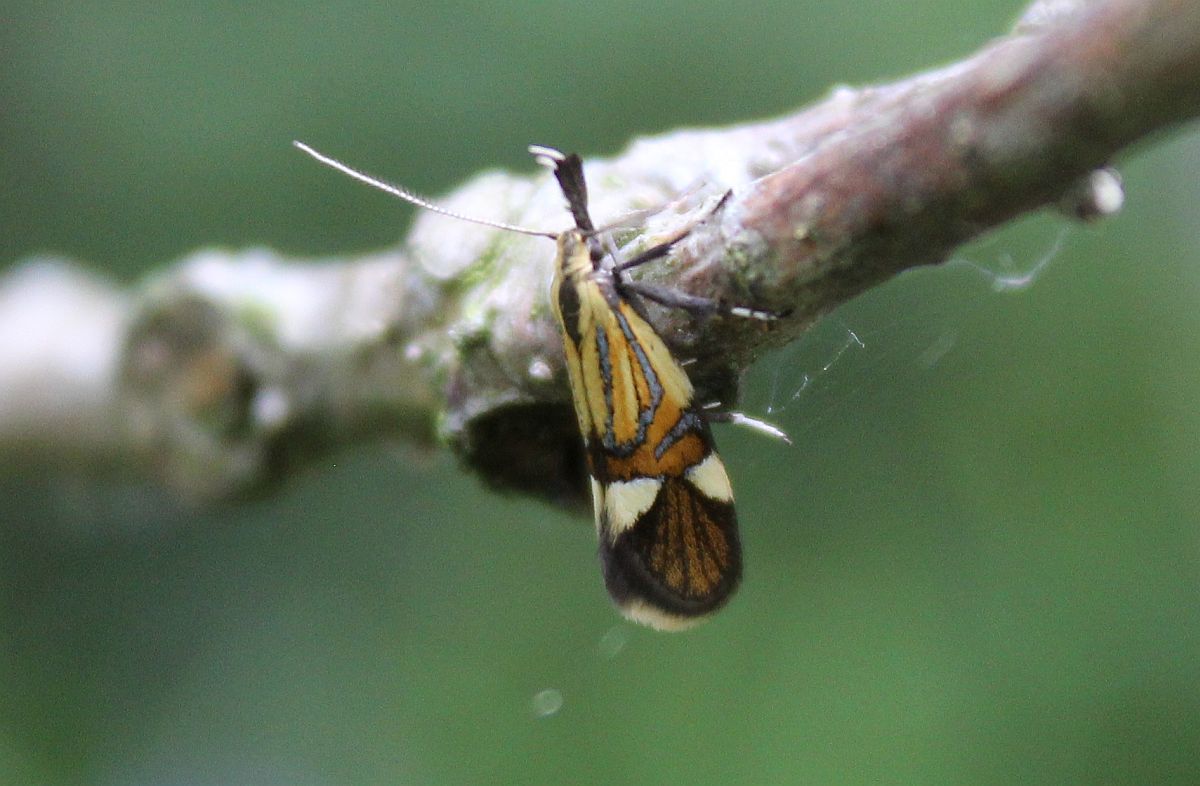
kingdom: Animalia
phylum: Arthropoda
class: Insecta
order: Lepidoptera
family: Oecophoridae
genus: Oecophora
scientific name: Oecophora Alabonia geoffrella
